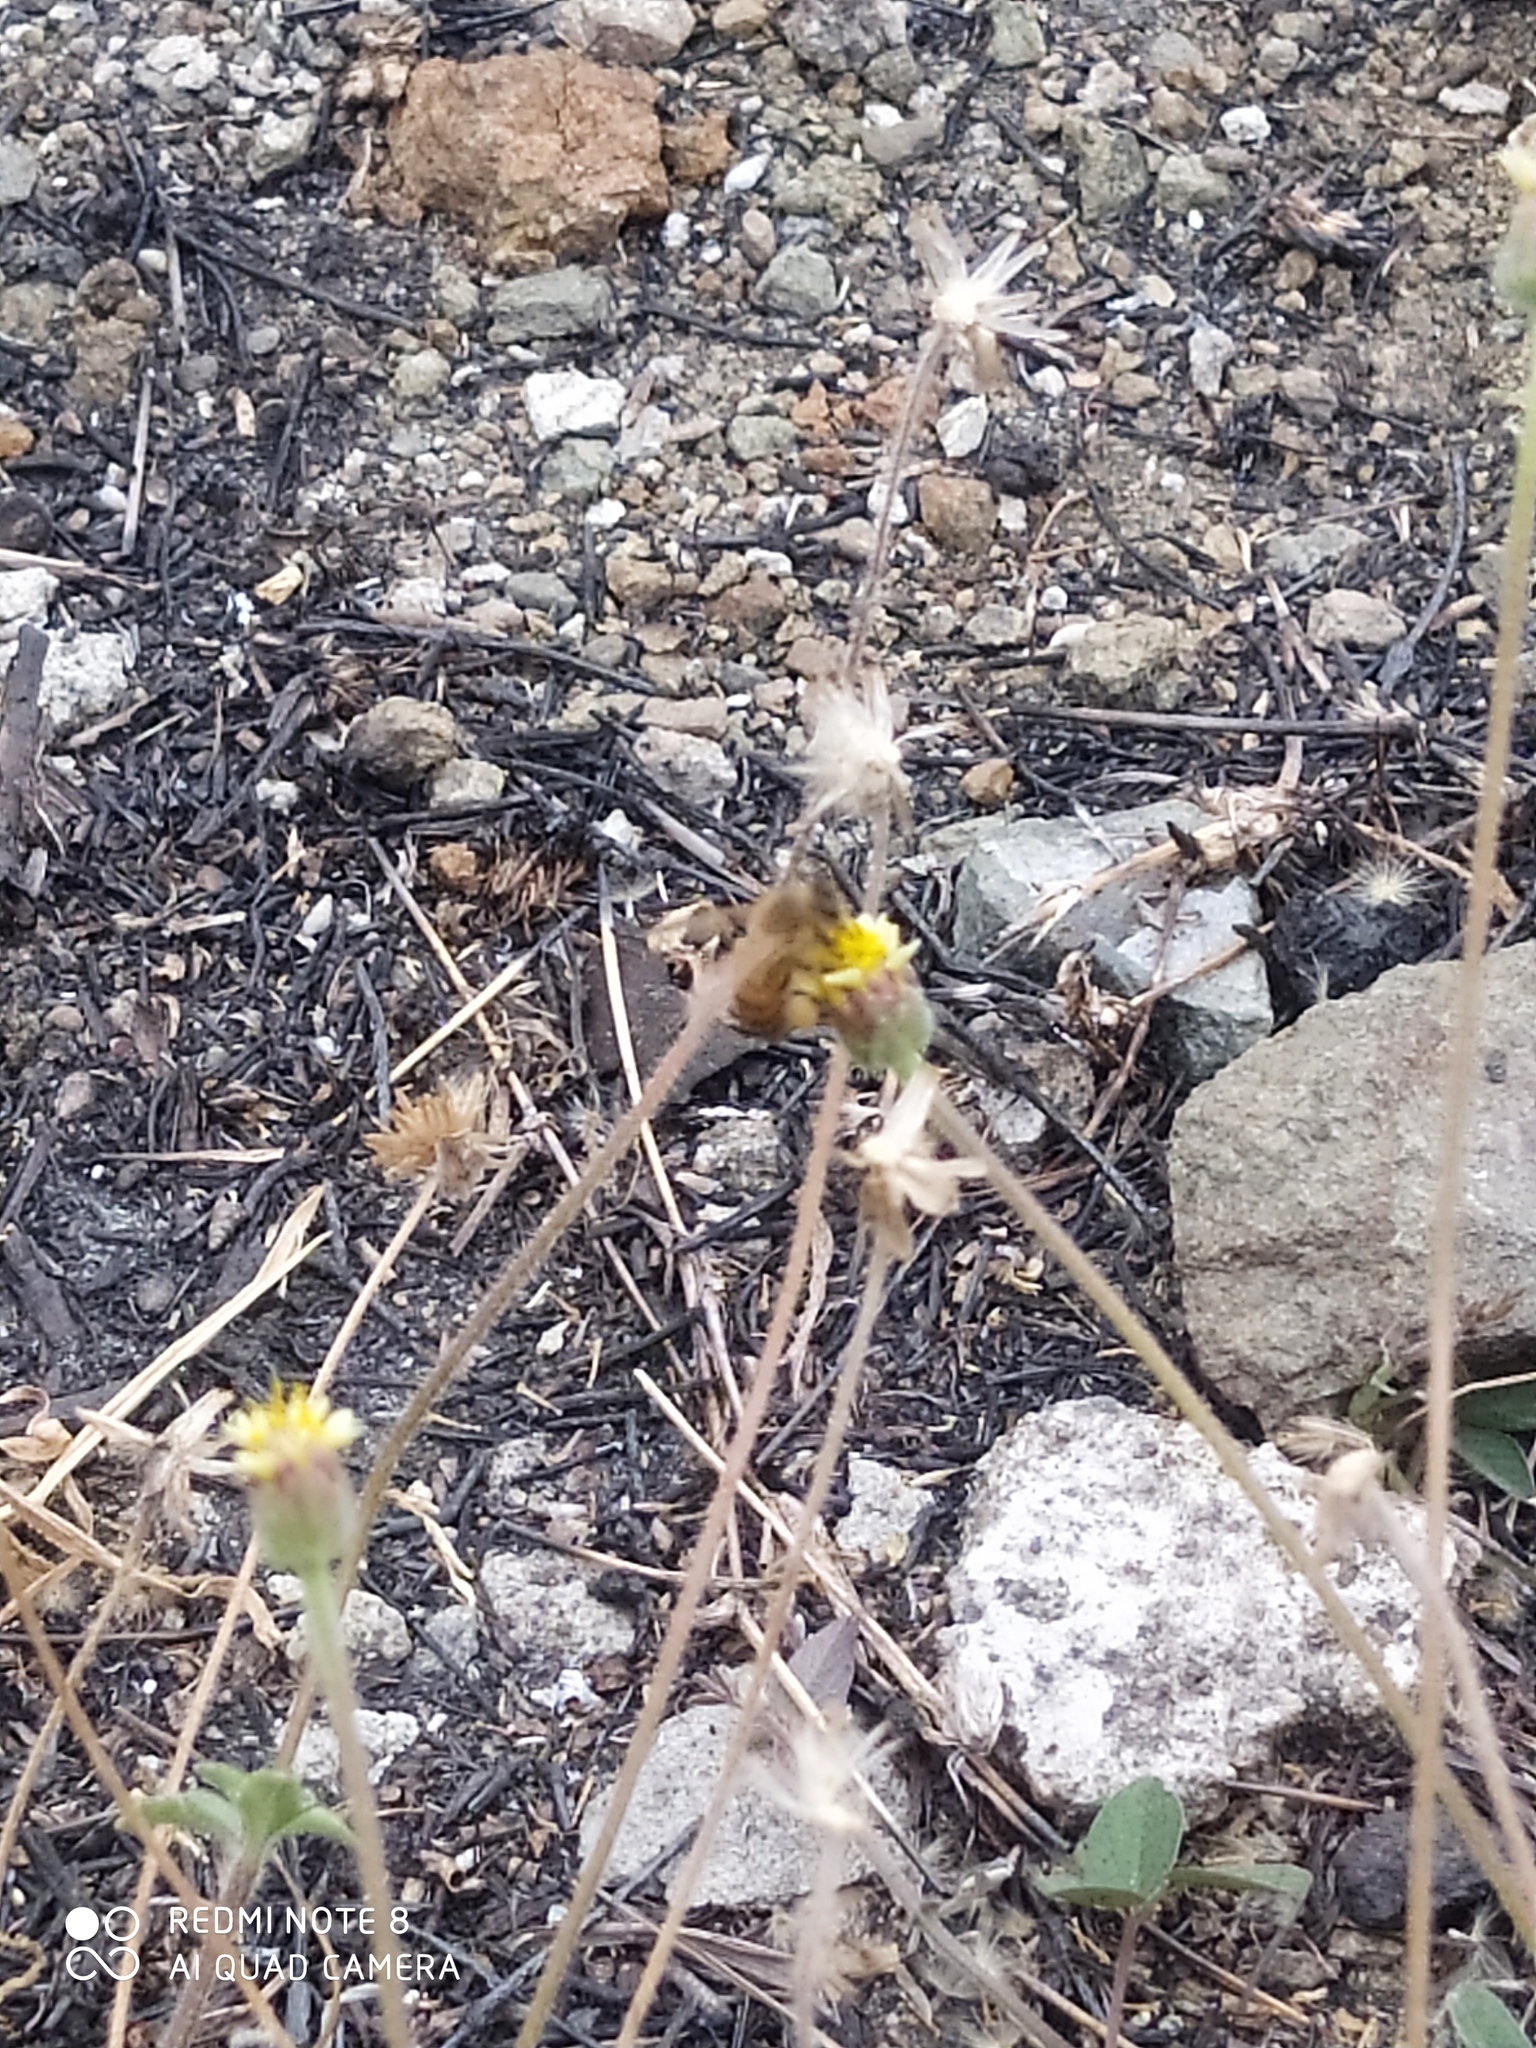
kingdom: Animalia
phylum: Arthropoda
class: Insecta
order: Hymenoptera
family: Apidae
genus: Apis
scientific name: Apis mellifera
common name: Honey bee
